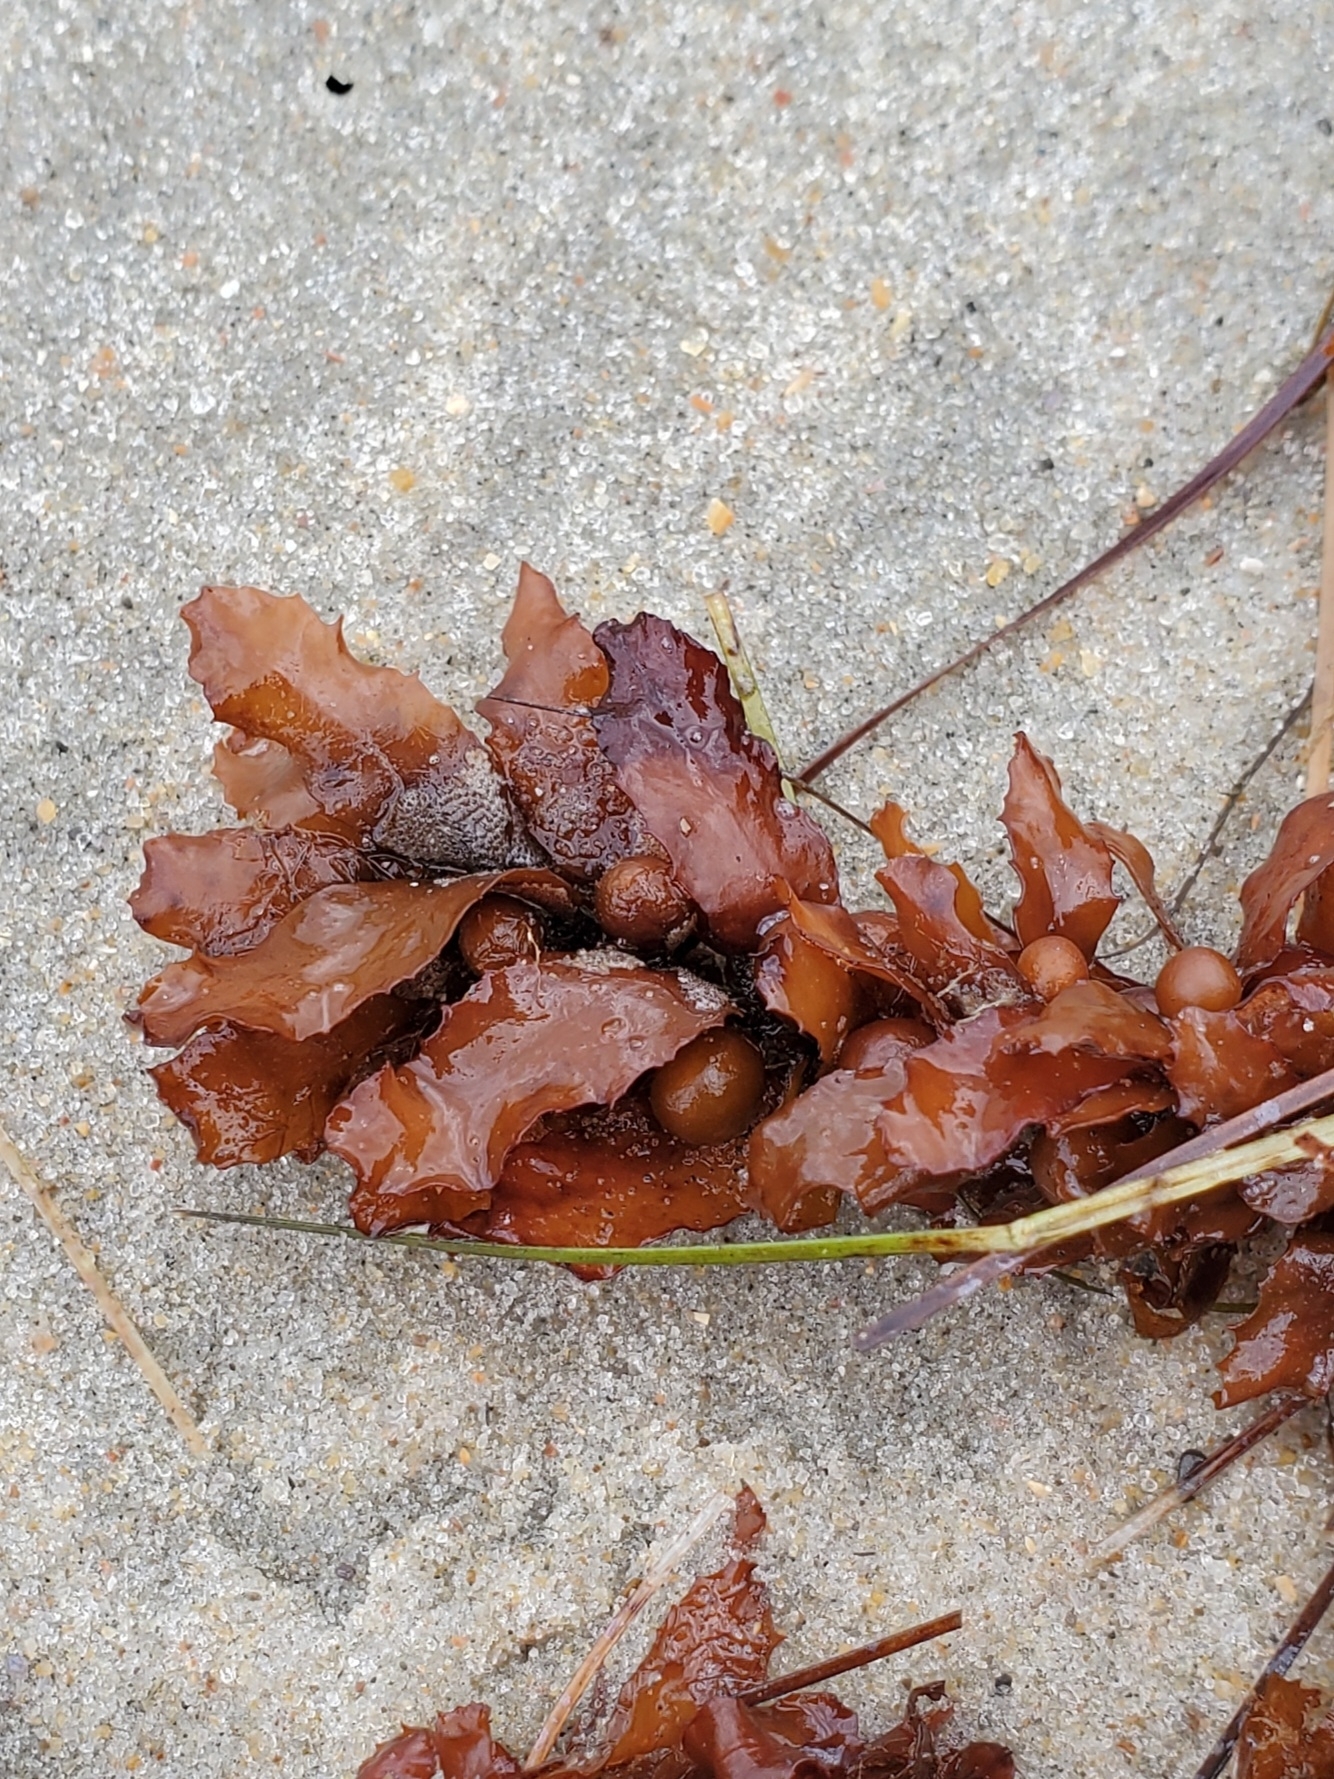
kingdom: Chromista
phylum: Ochrophyta
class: Phaeophyceae
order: Fucales
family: Sargassaceae
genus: Sargassum
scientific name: Sargassum fluitans
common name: Sargassum seaweed
